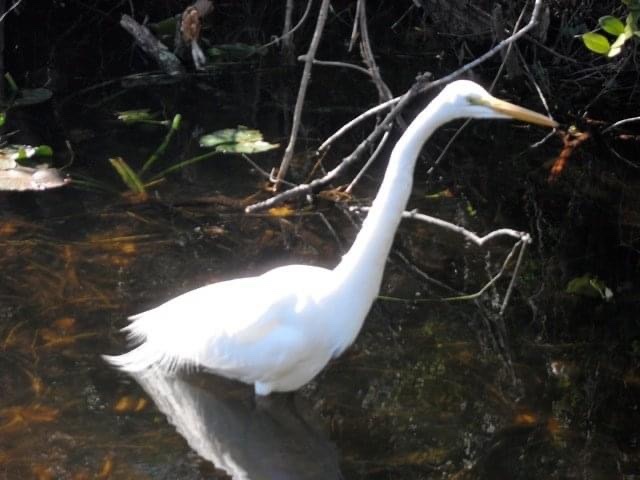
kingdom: Animalia
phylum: Chordata
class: Aves
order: Pelecaniformes
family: Ardeidae
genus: Ardea
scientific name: Ardea alba
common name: Great egret
